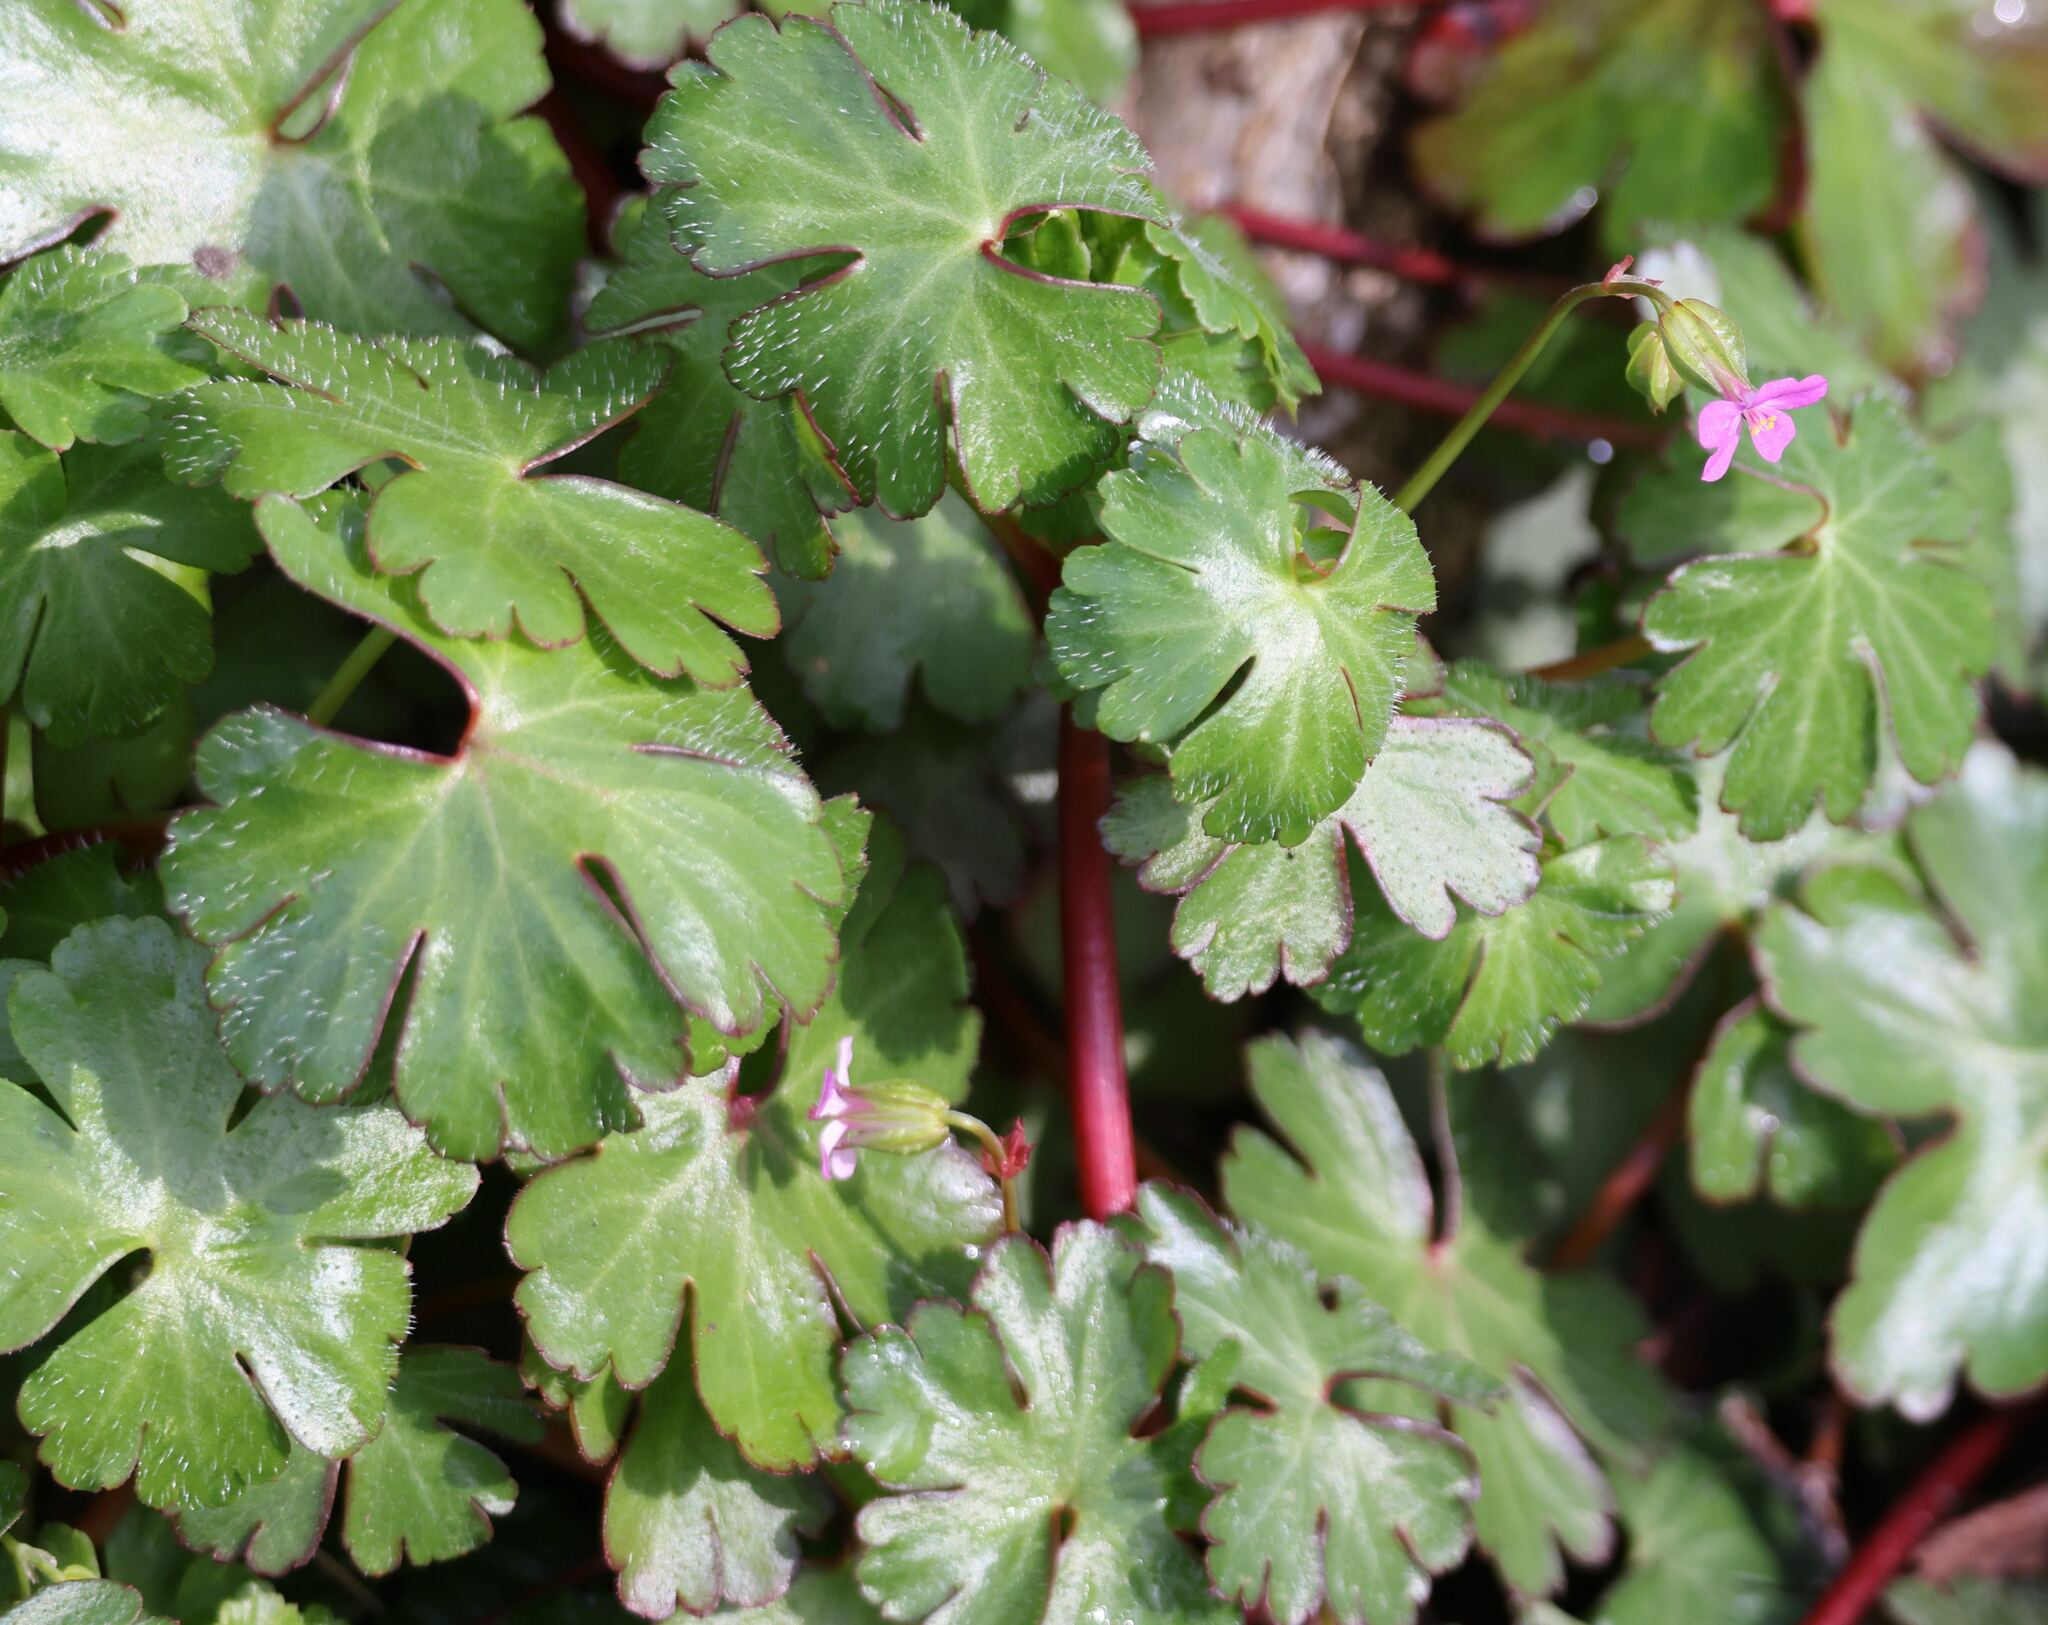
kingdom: Plantae
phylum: Tracheophyta
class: Magnoliopsida
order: Geraniales
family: Geraniaceae
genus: Geranium
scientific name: Geranium lucidum
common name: Shining crane's-bill
